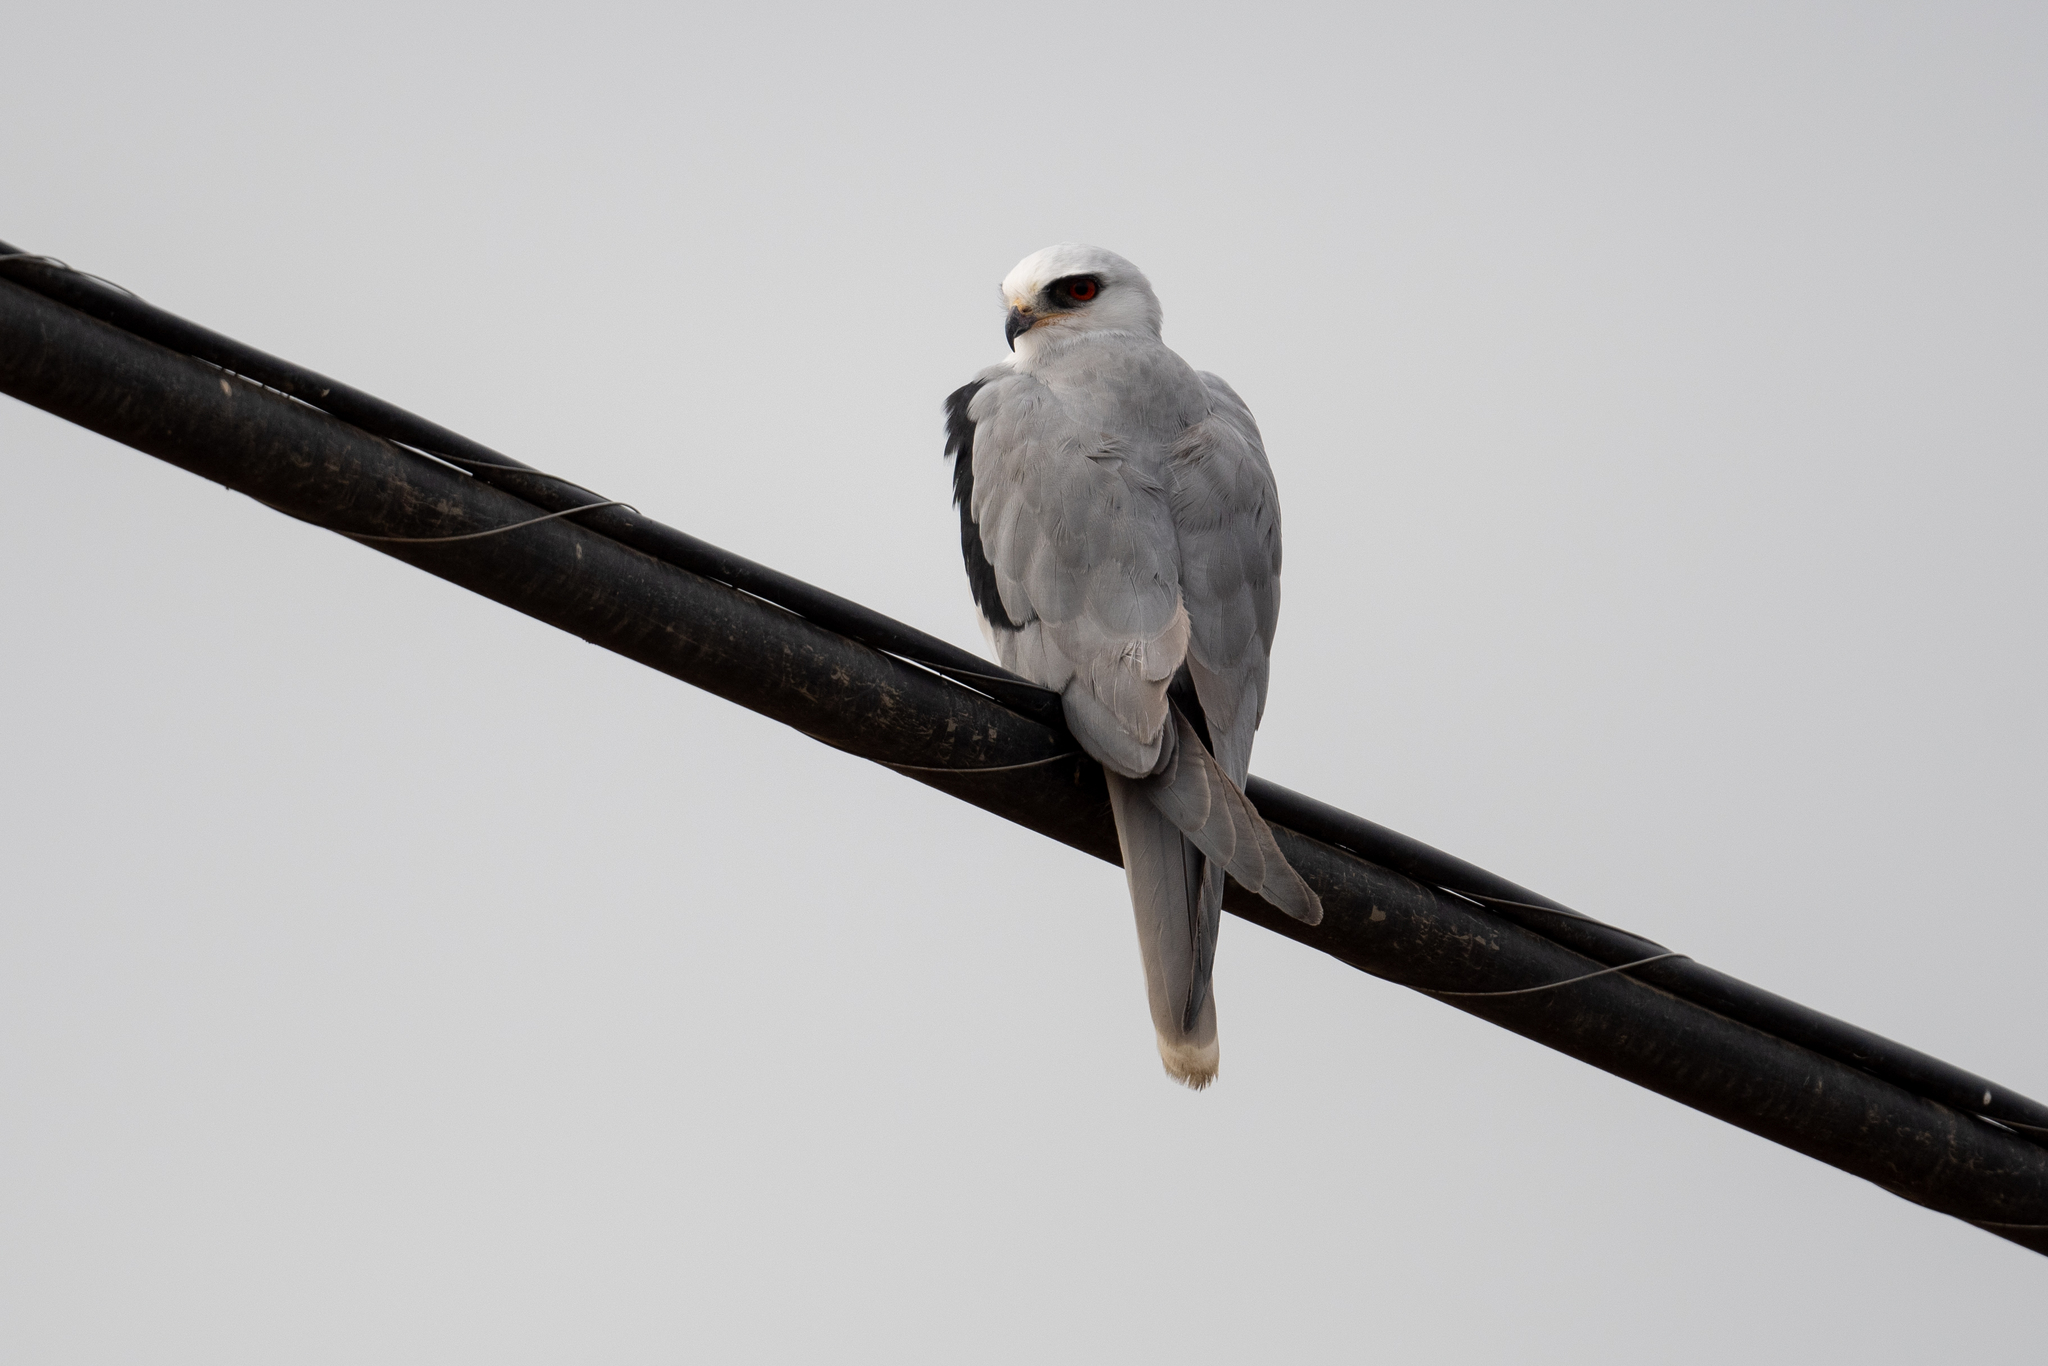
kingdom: Animalia
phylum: Chordata
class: Aves
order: Accipitriformes
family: Accipitridae
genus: Elanus
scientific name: Elanus leucurus
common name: White-tailed kite
